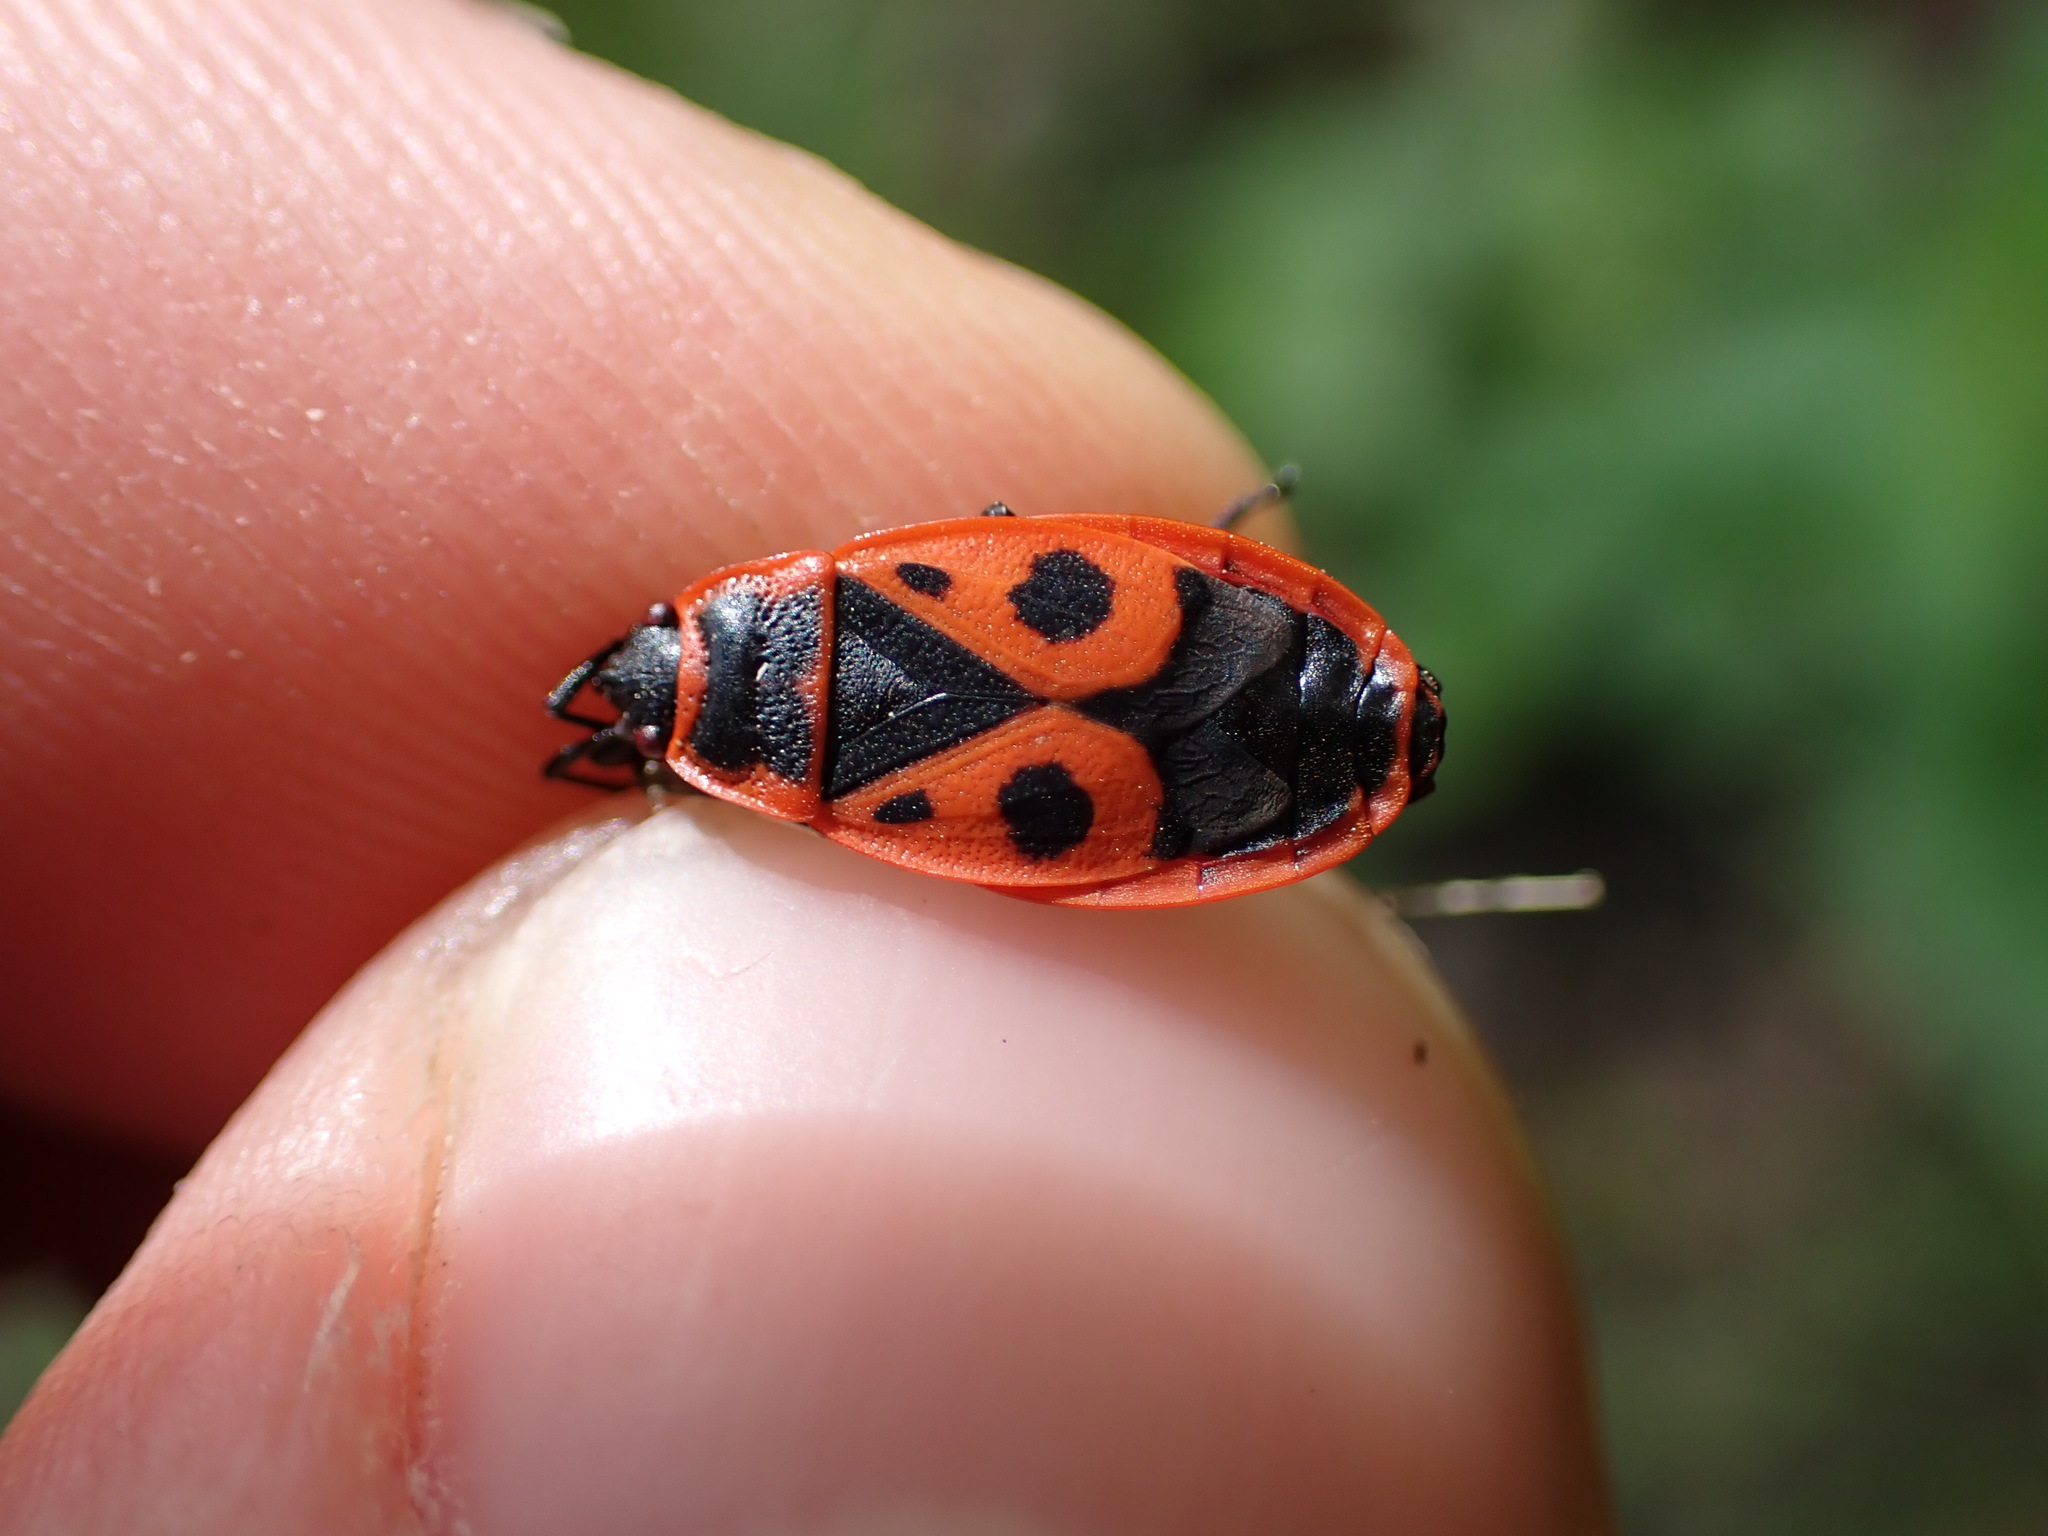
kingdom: Animalia
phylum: Arthropoda
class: Insecta
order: Hemiptera
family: Pyrrhocoridae
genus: Pyrrhocoris
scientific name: Pyrrhocoris apterus
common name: Firebug
